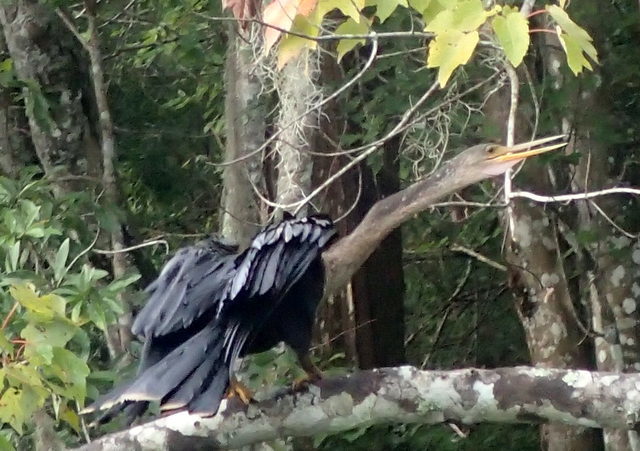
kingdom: Animalia
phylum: Chordata
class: Aves
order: Suliformes
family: Anhingidae
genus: Anhinga
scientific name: Anhinga anhinga
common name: Anhinga
